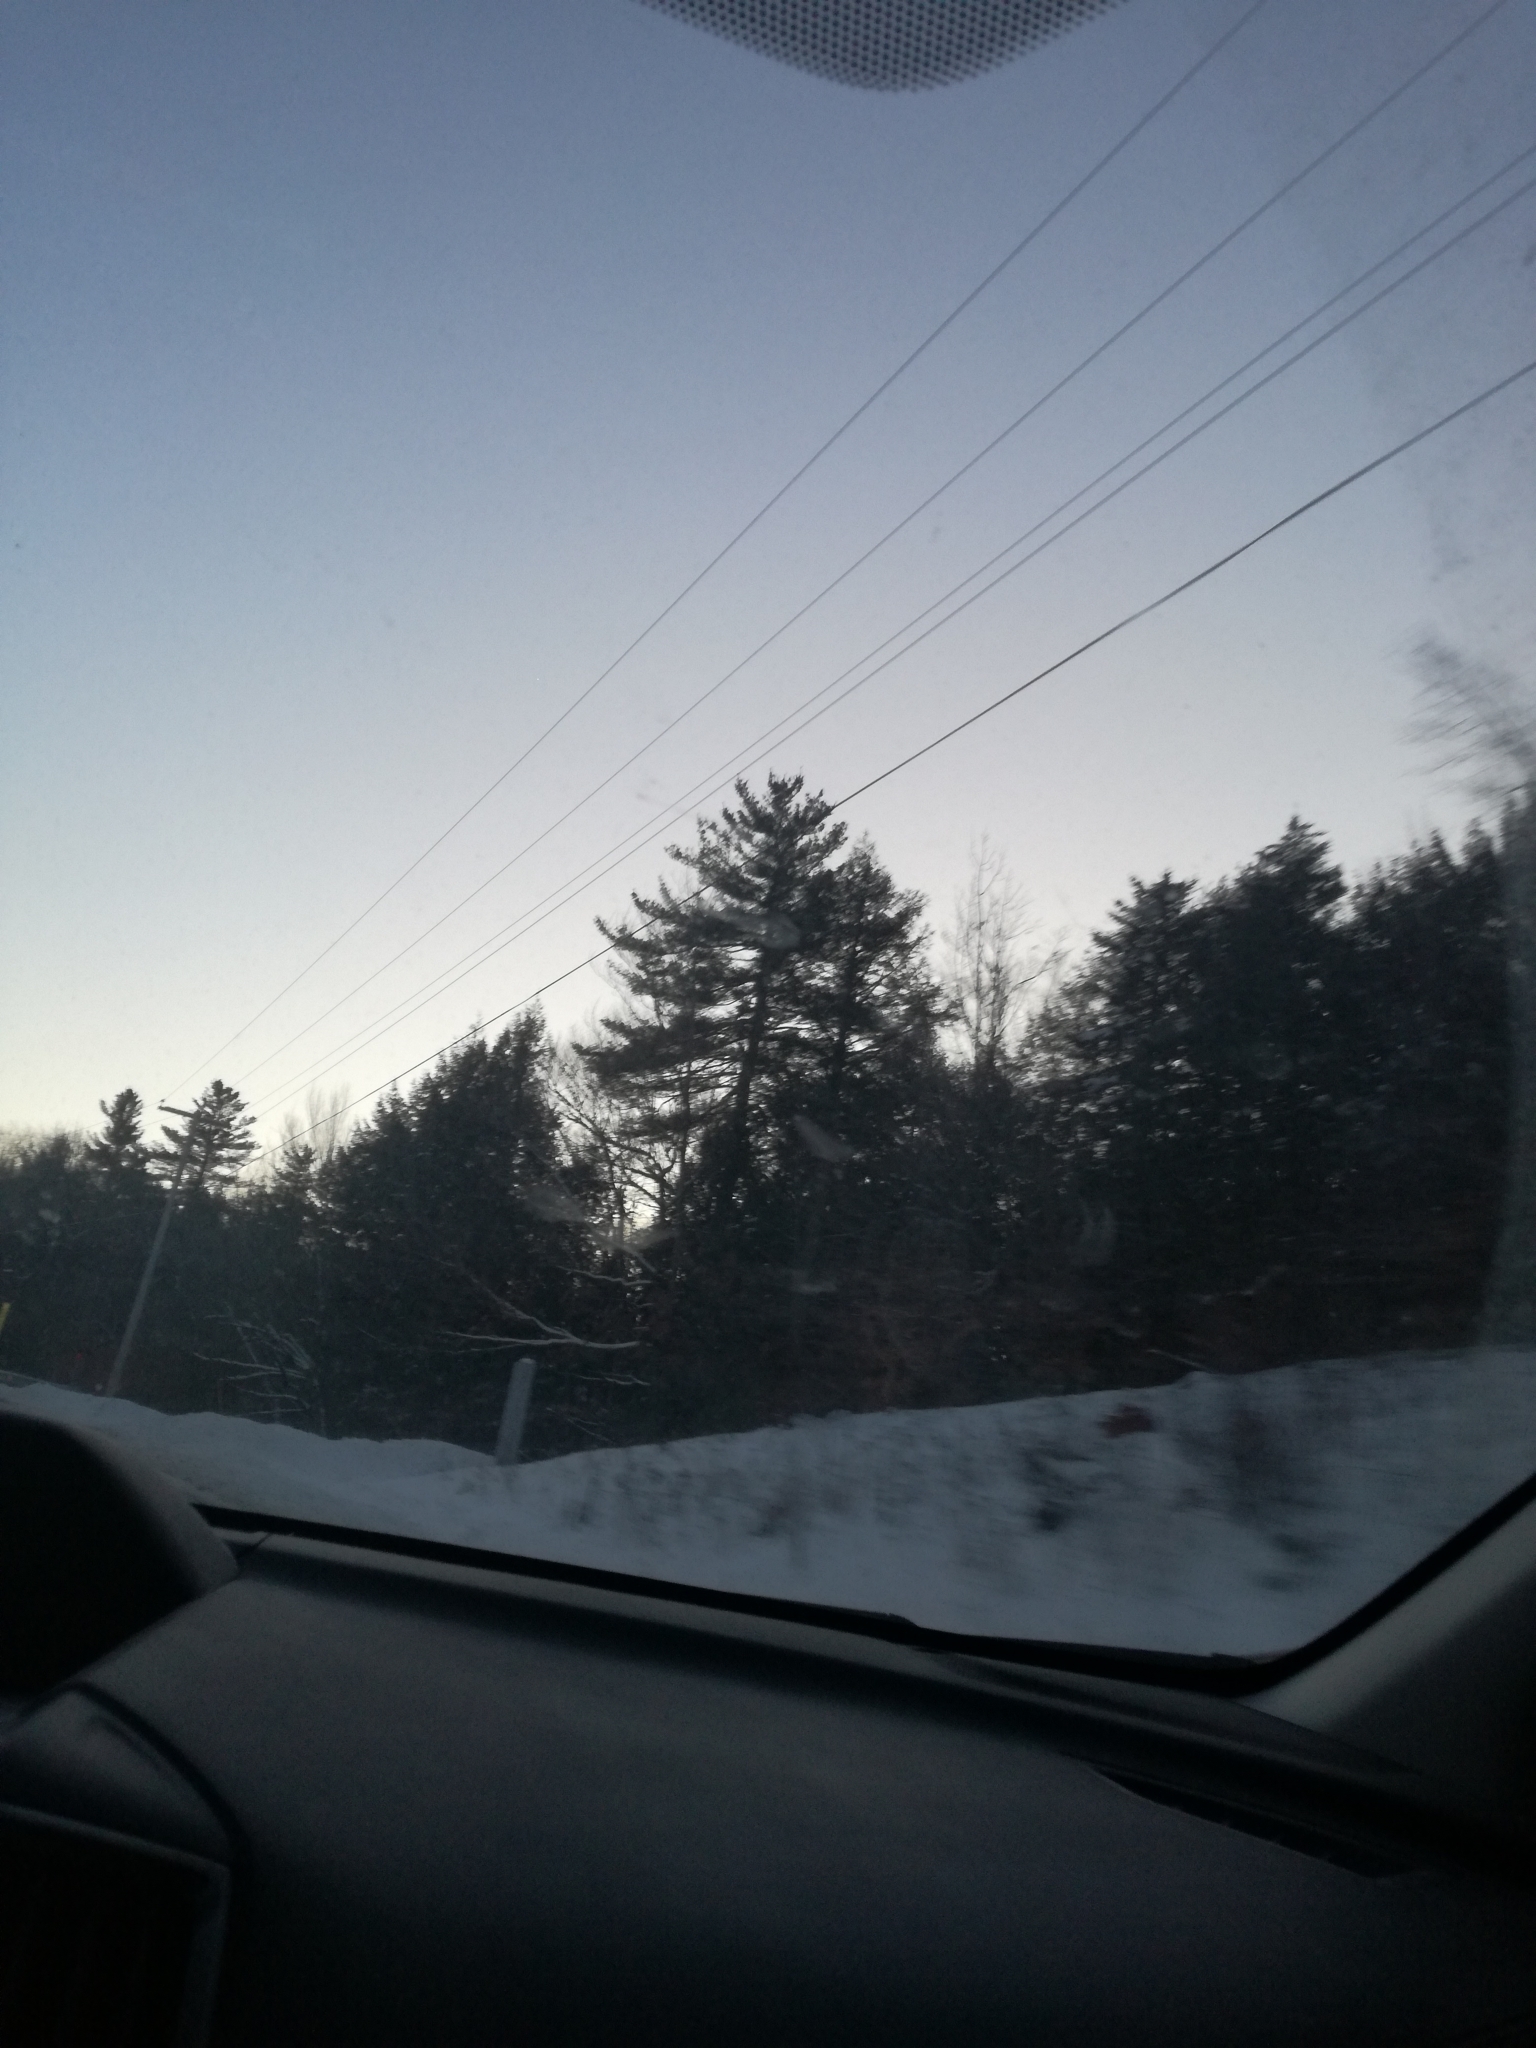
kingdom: Plantae
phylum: Tracheophyta
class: Pinopsida
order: Pinales
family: Pinaceae
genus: Pinus
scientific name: Pinus strobus
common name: Weymouth pine
